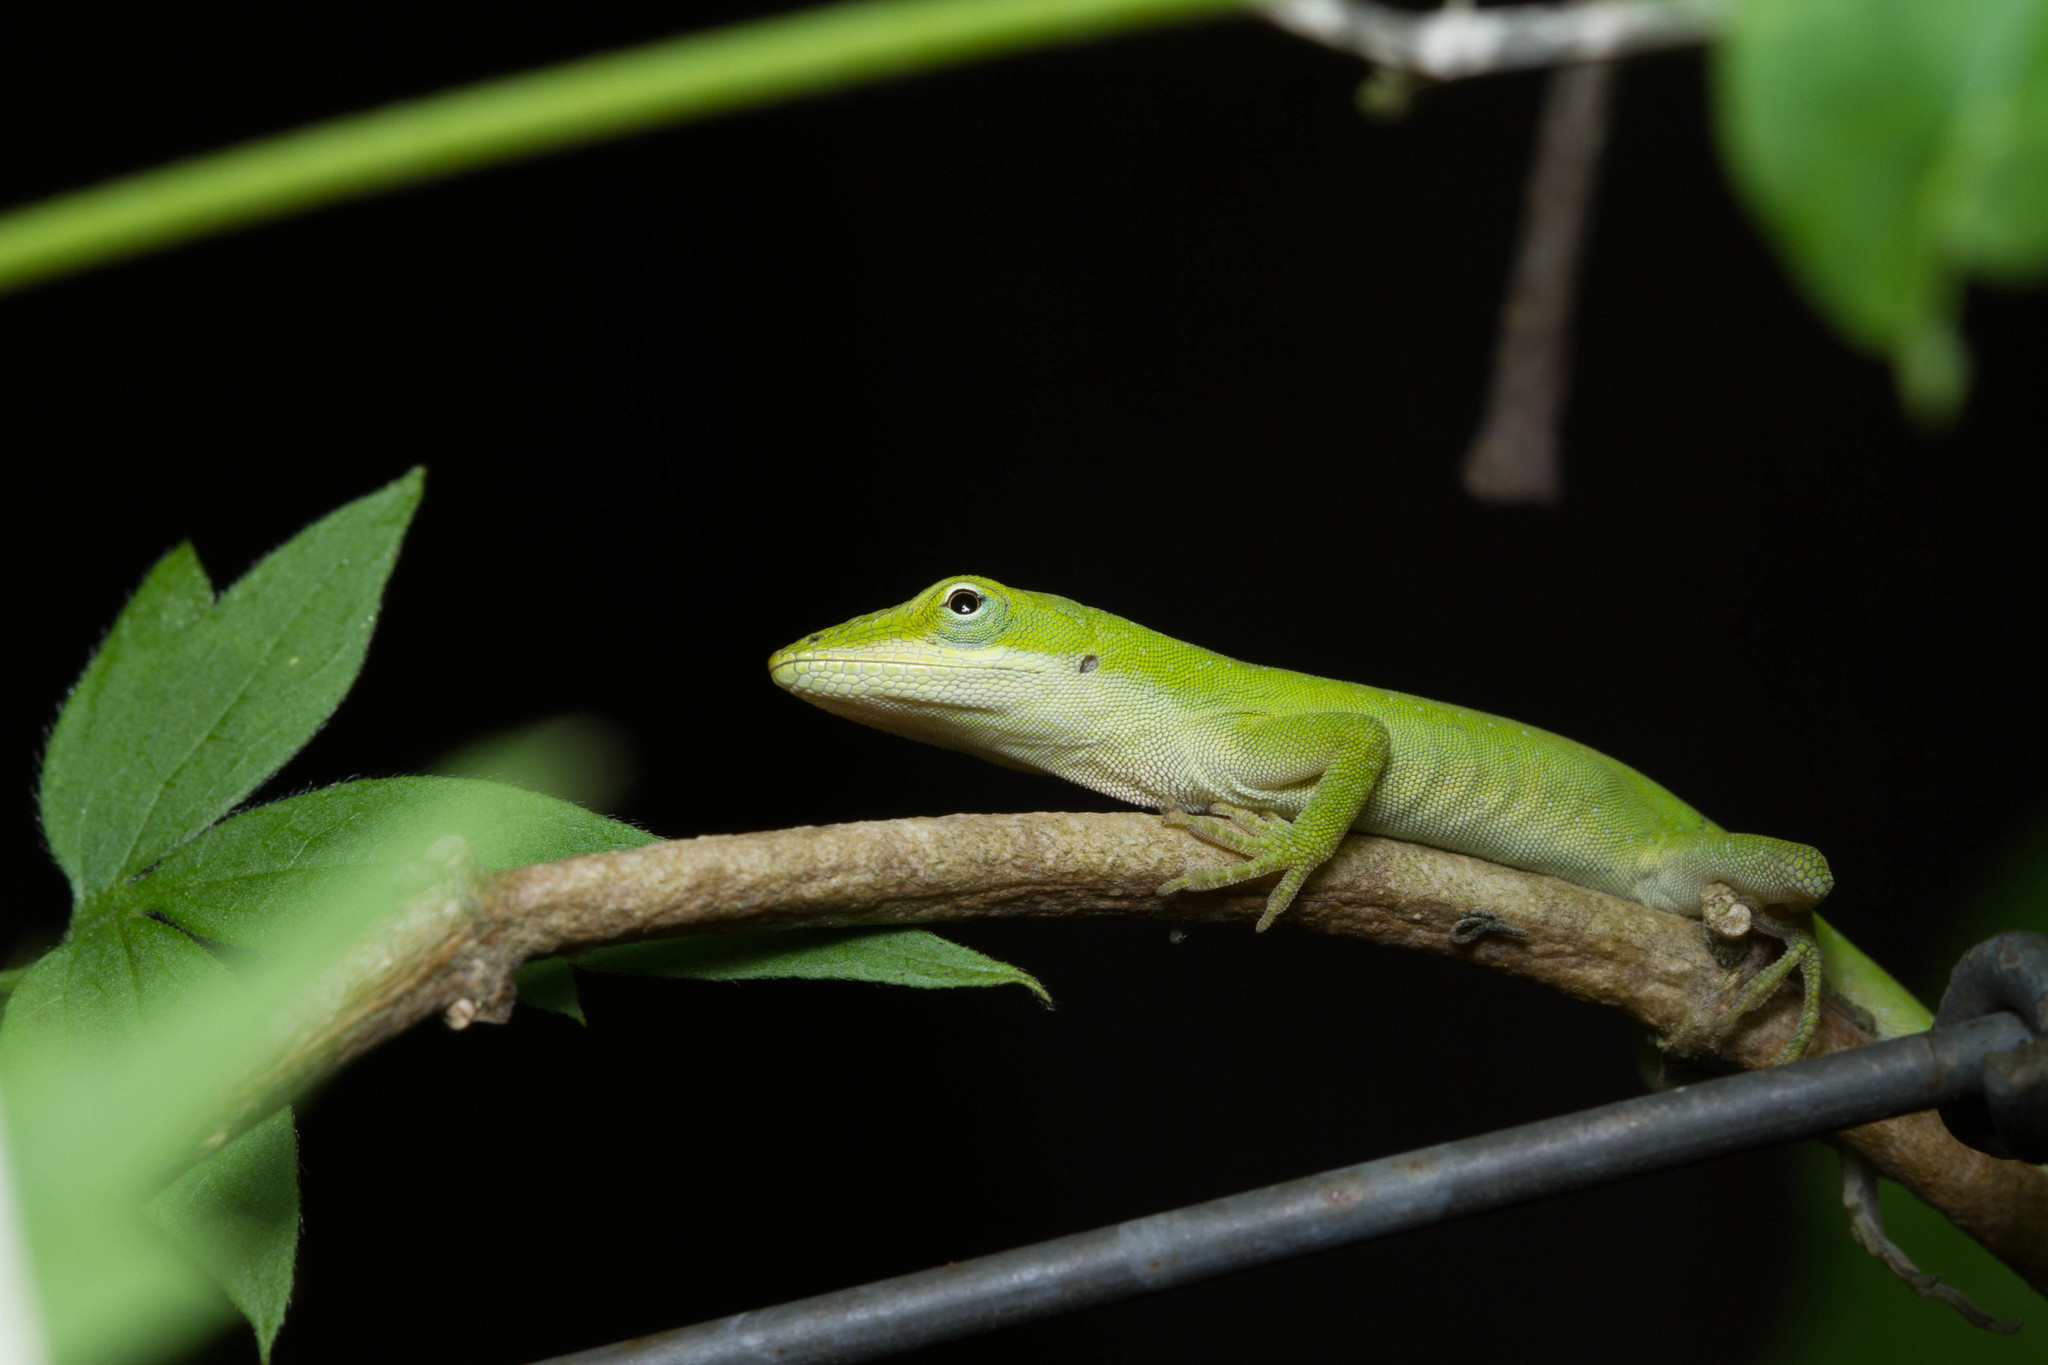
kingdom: Animalia
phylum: Chordata
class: Squamata
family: Dactyloidae
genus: Anolis
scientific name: Anolis carolinensis
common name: Green anole
